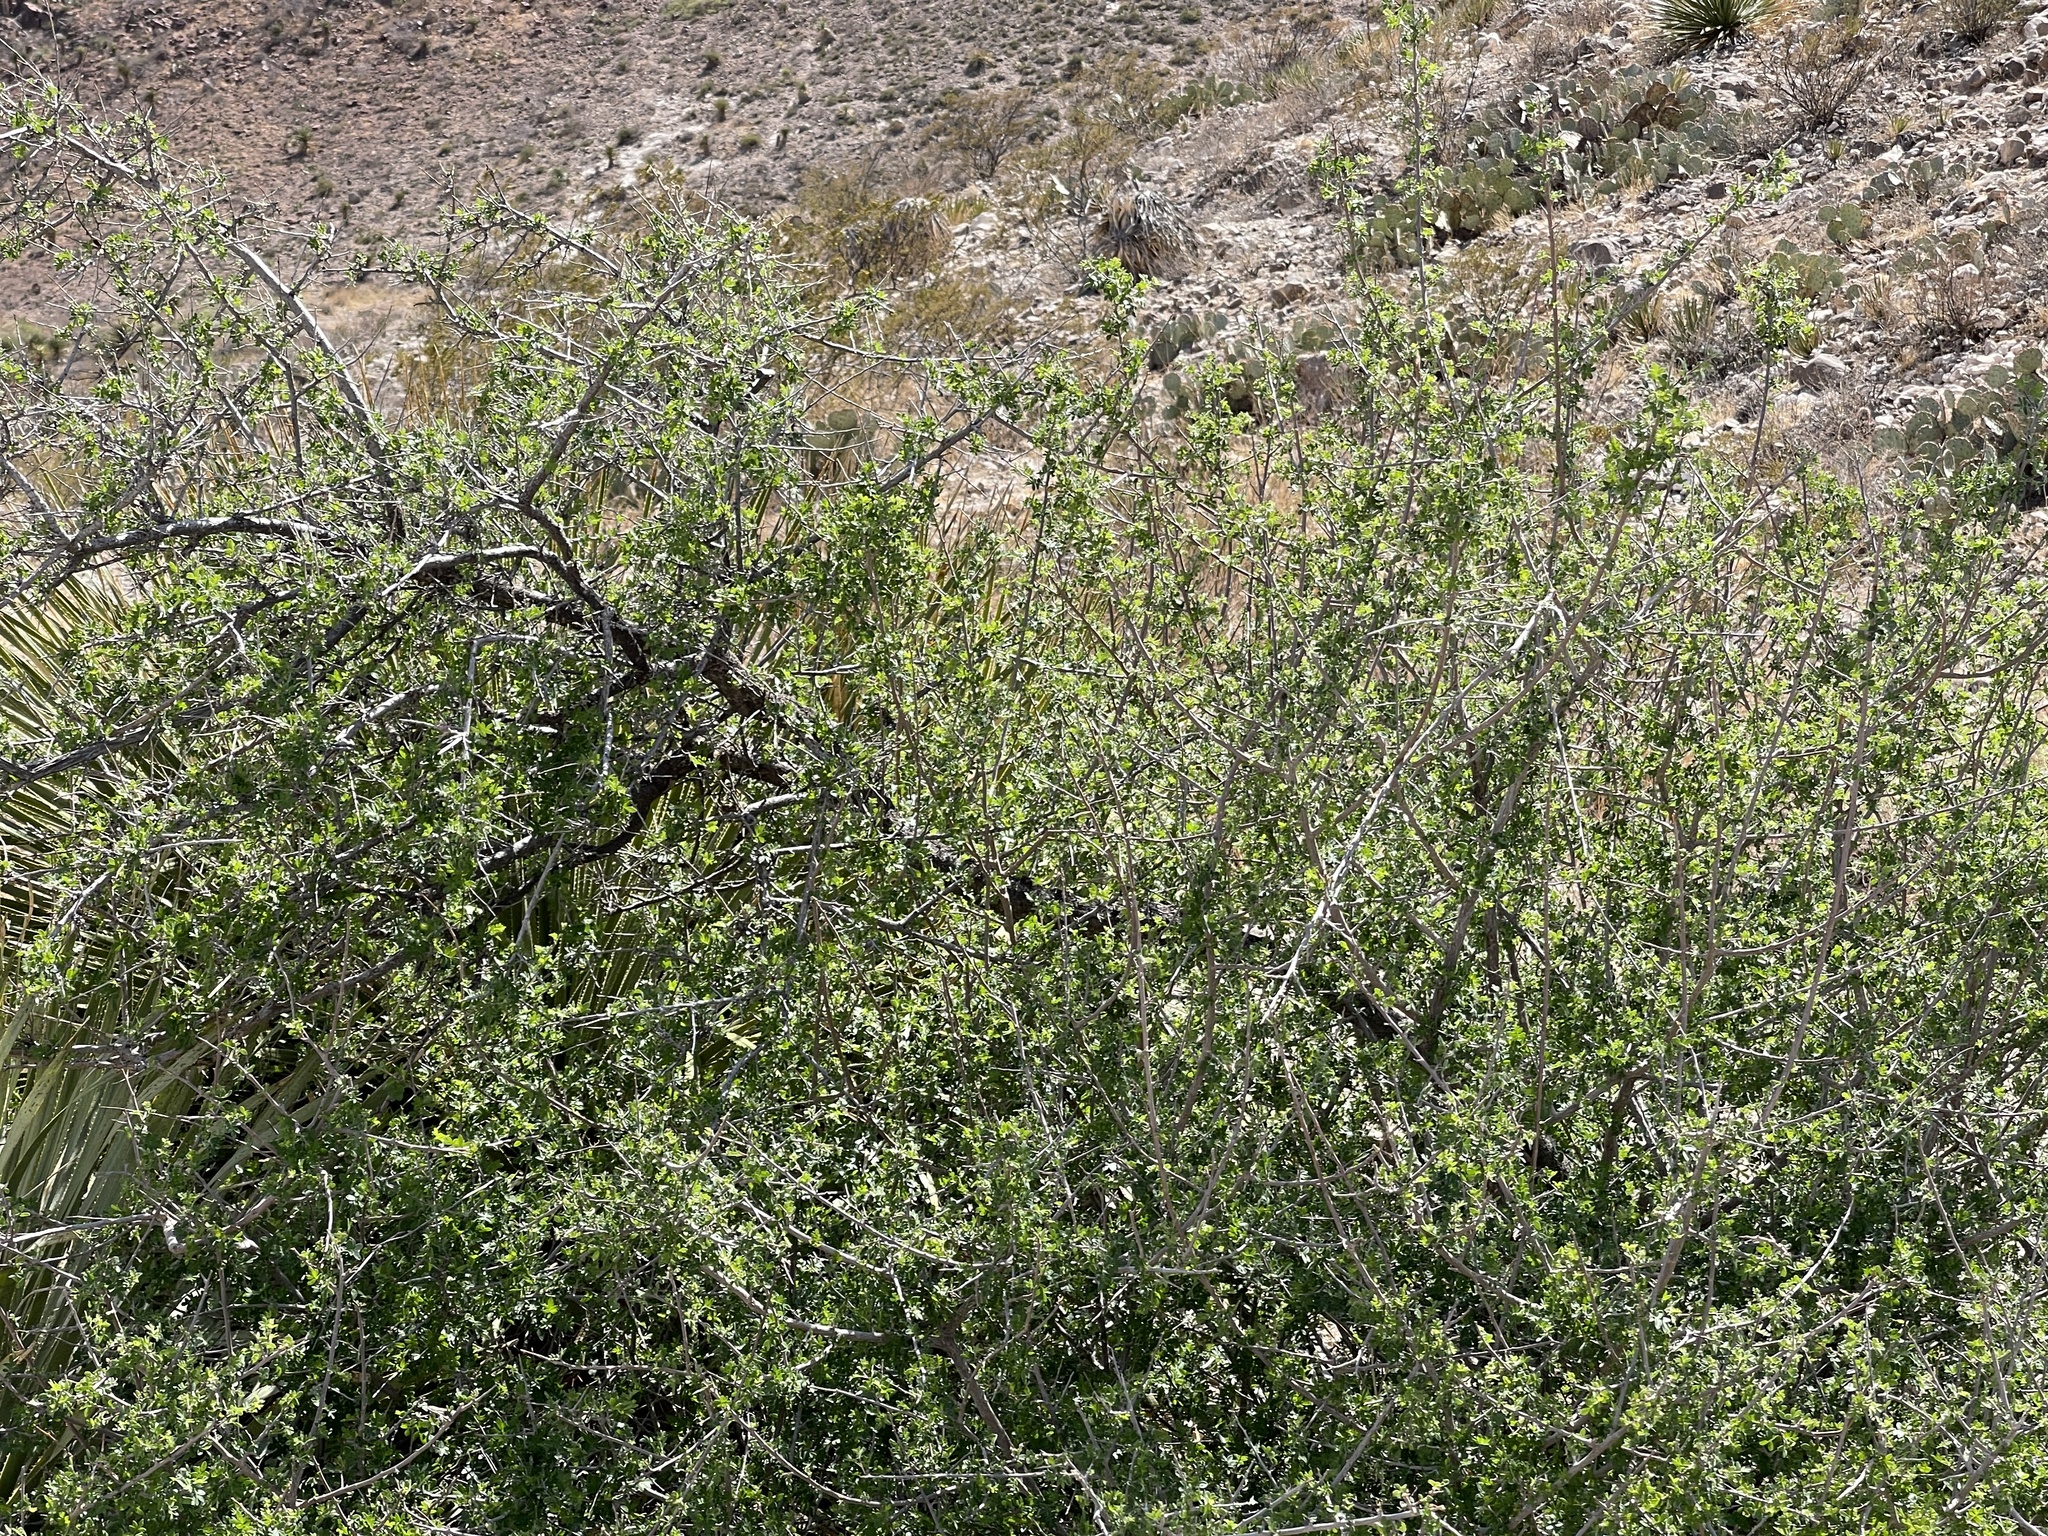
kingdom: Plantae
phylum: Tracheophyta
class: Magnoliopsida
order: Sapindales
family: Anacardiaceae
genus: Rhus
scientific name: Rhus microphylla
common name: Desert sumac
